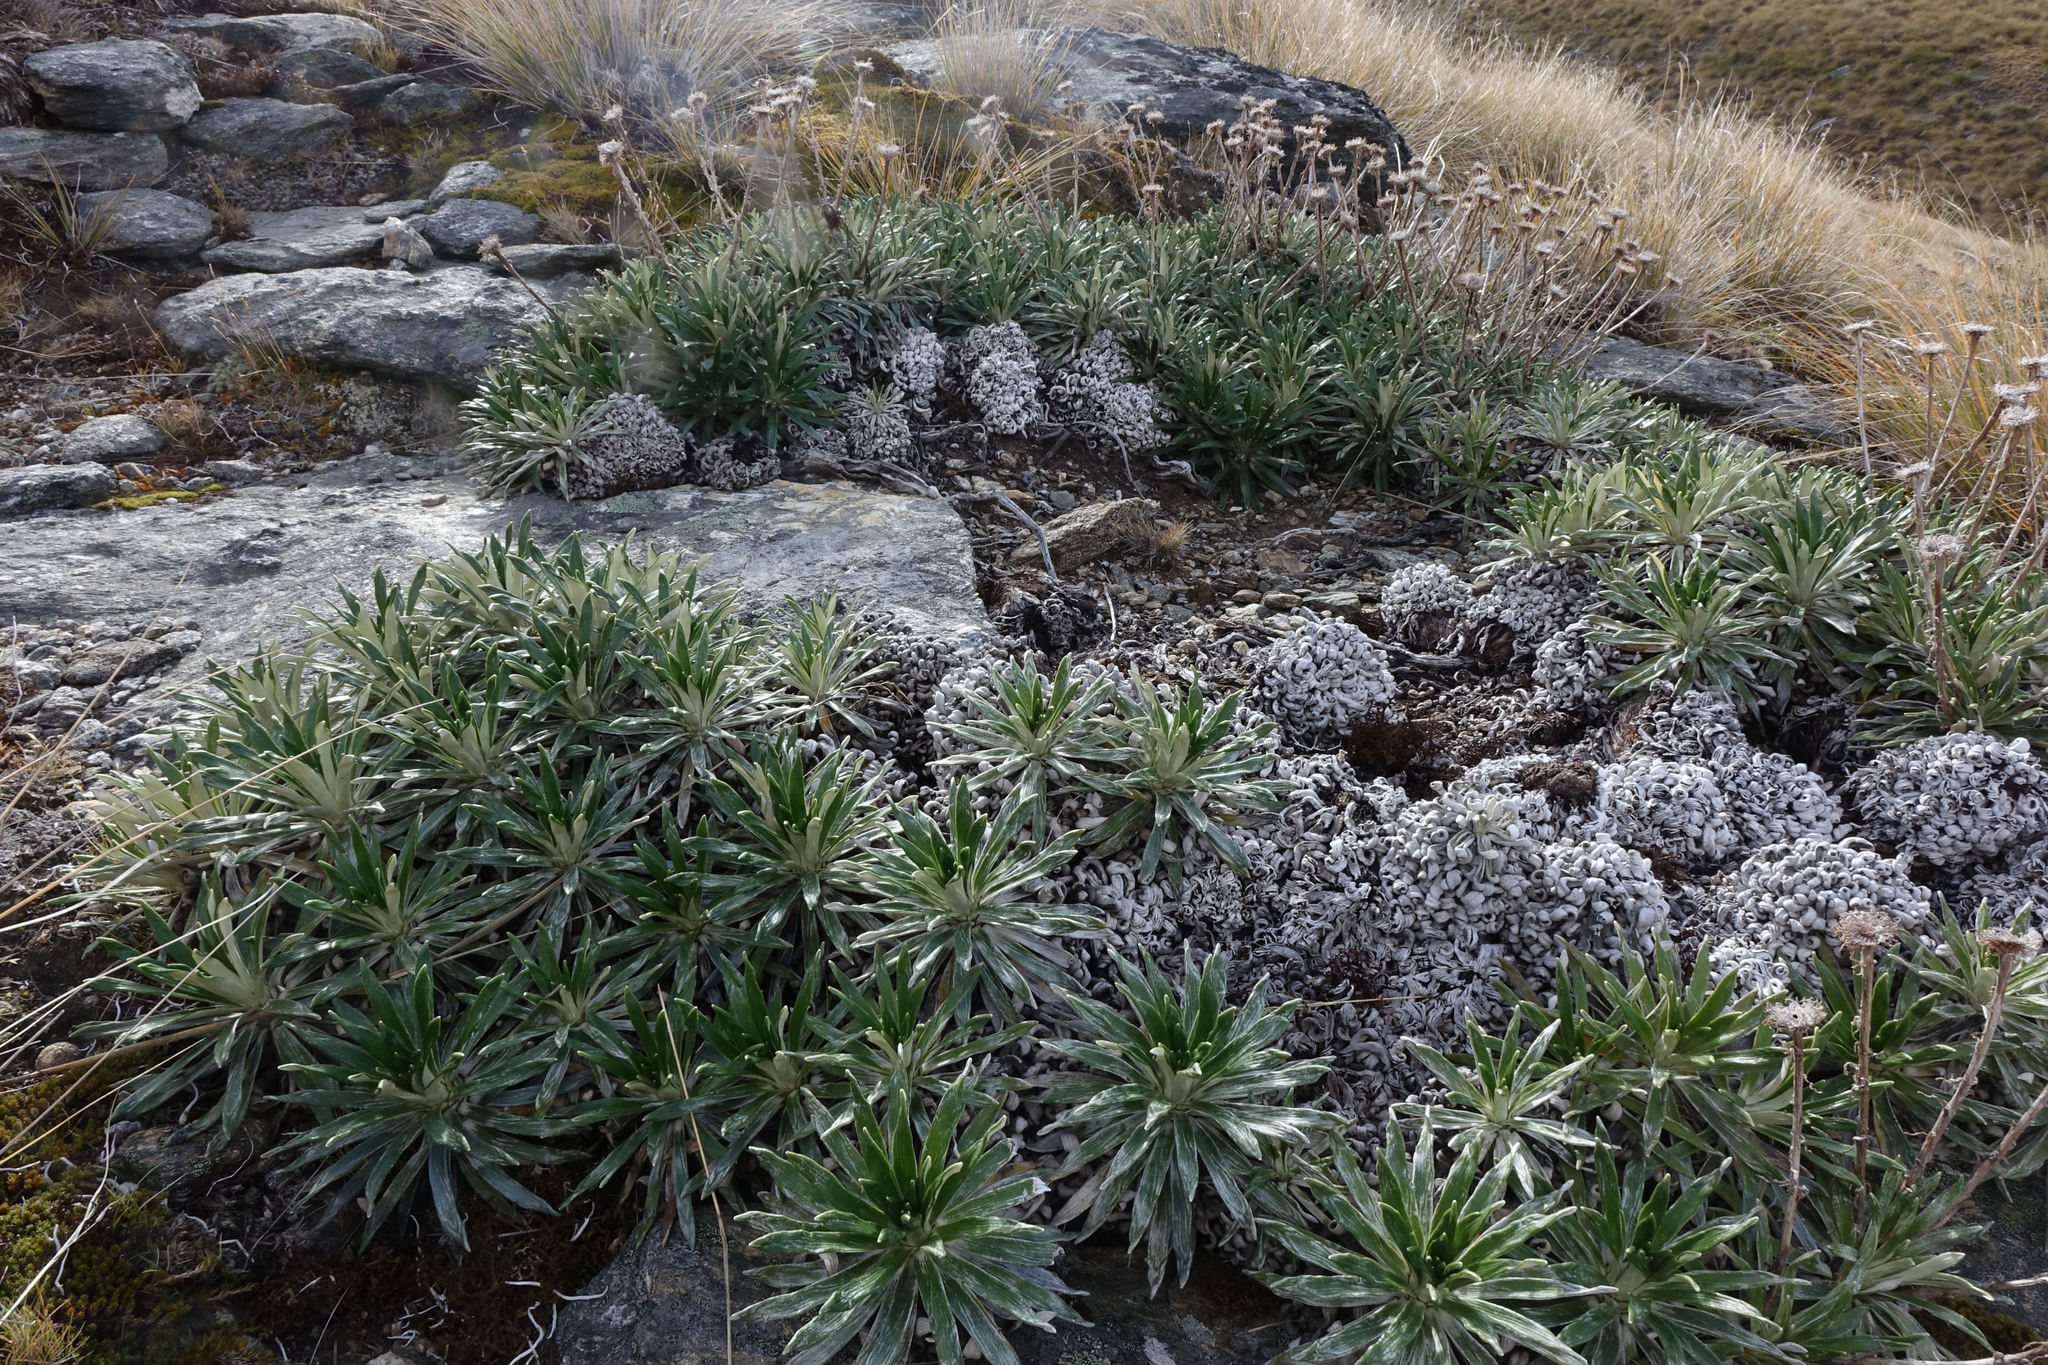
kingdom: Plantae
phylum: Tracheophyta
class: Magnoliopsida
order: Asterales
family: Asteraceae
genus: Celmisia
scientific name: Celmisia viscosa
